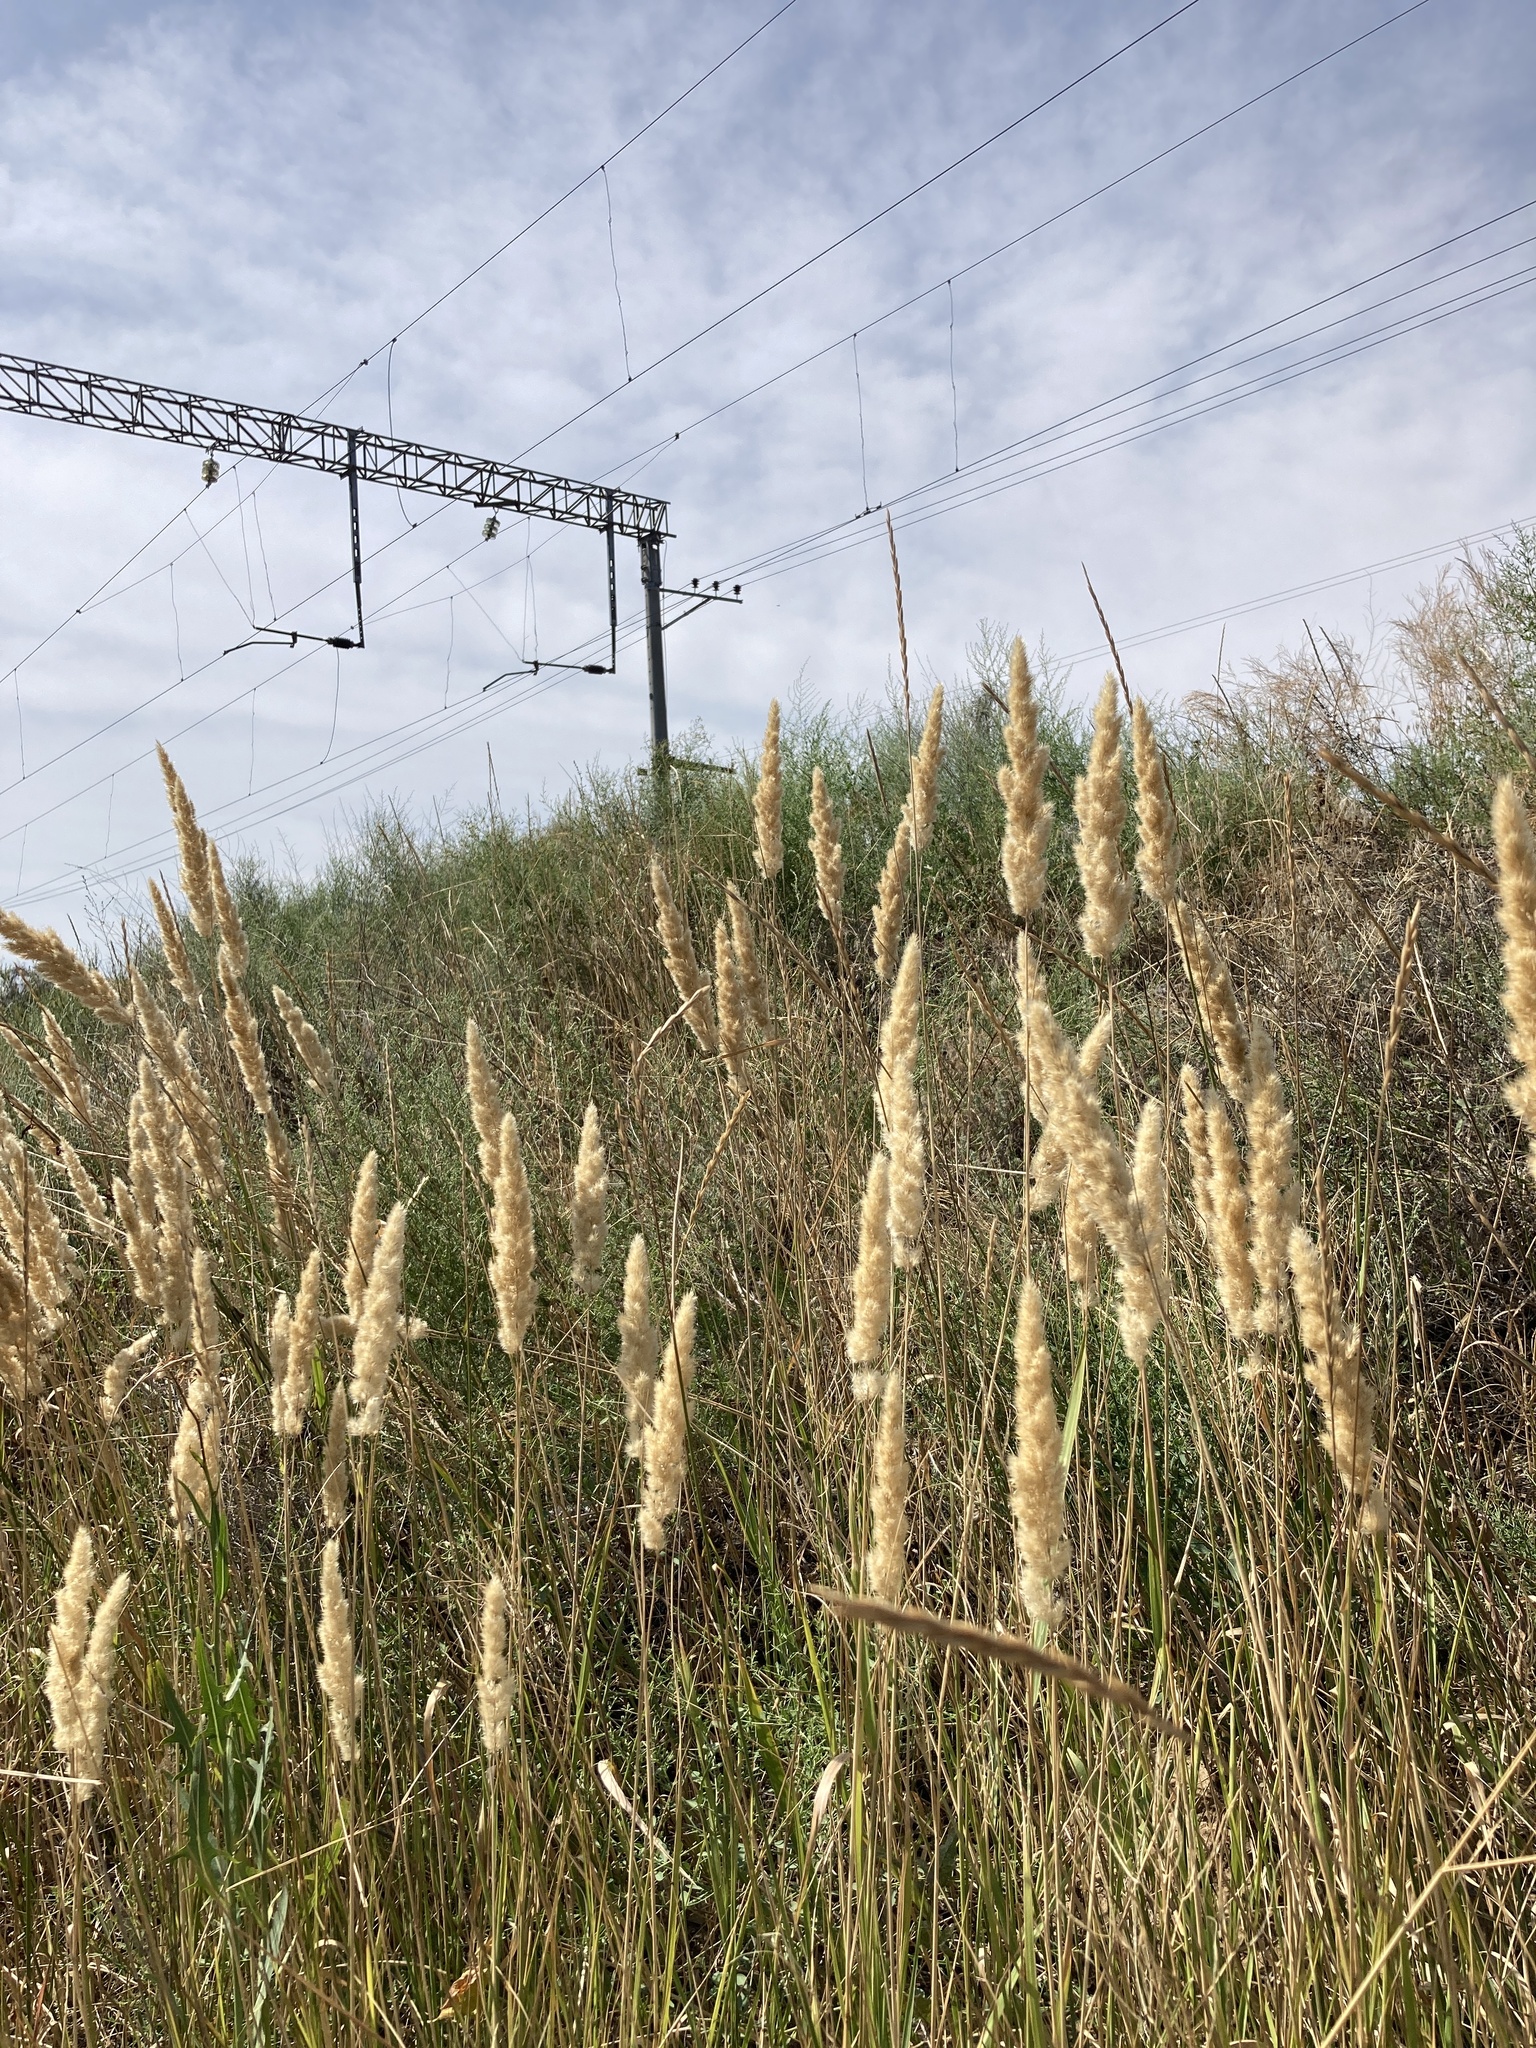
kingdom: Plantae
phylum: Tracheophyta
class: Liliopsida
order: Poales
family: Poaceae
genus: Calamagrostis
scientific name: Calamagrostis epigejos
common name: Wood small-reed
